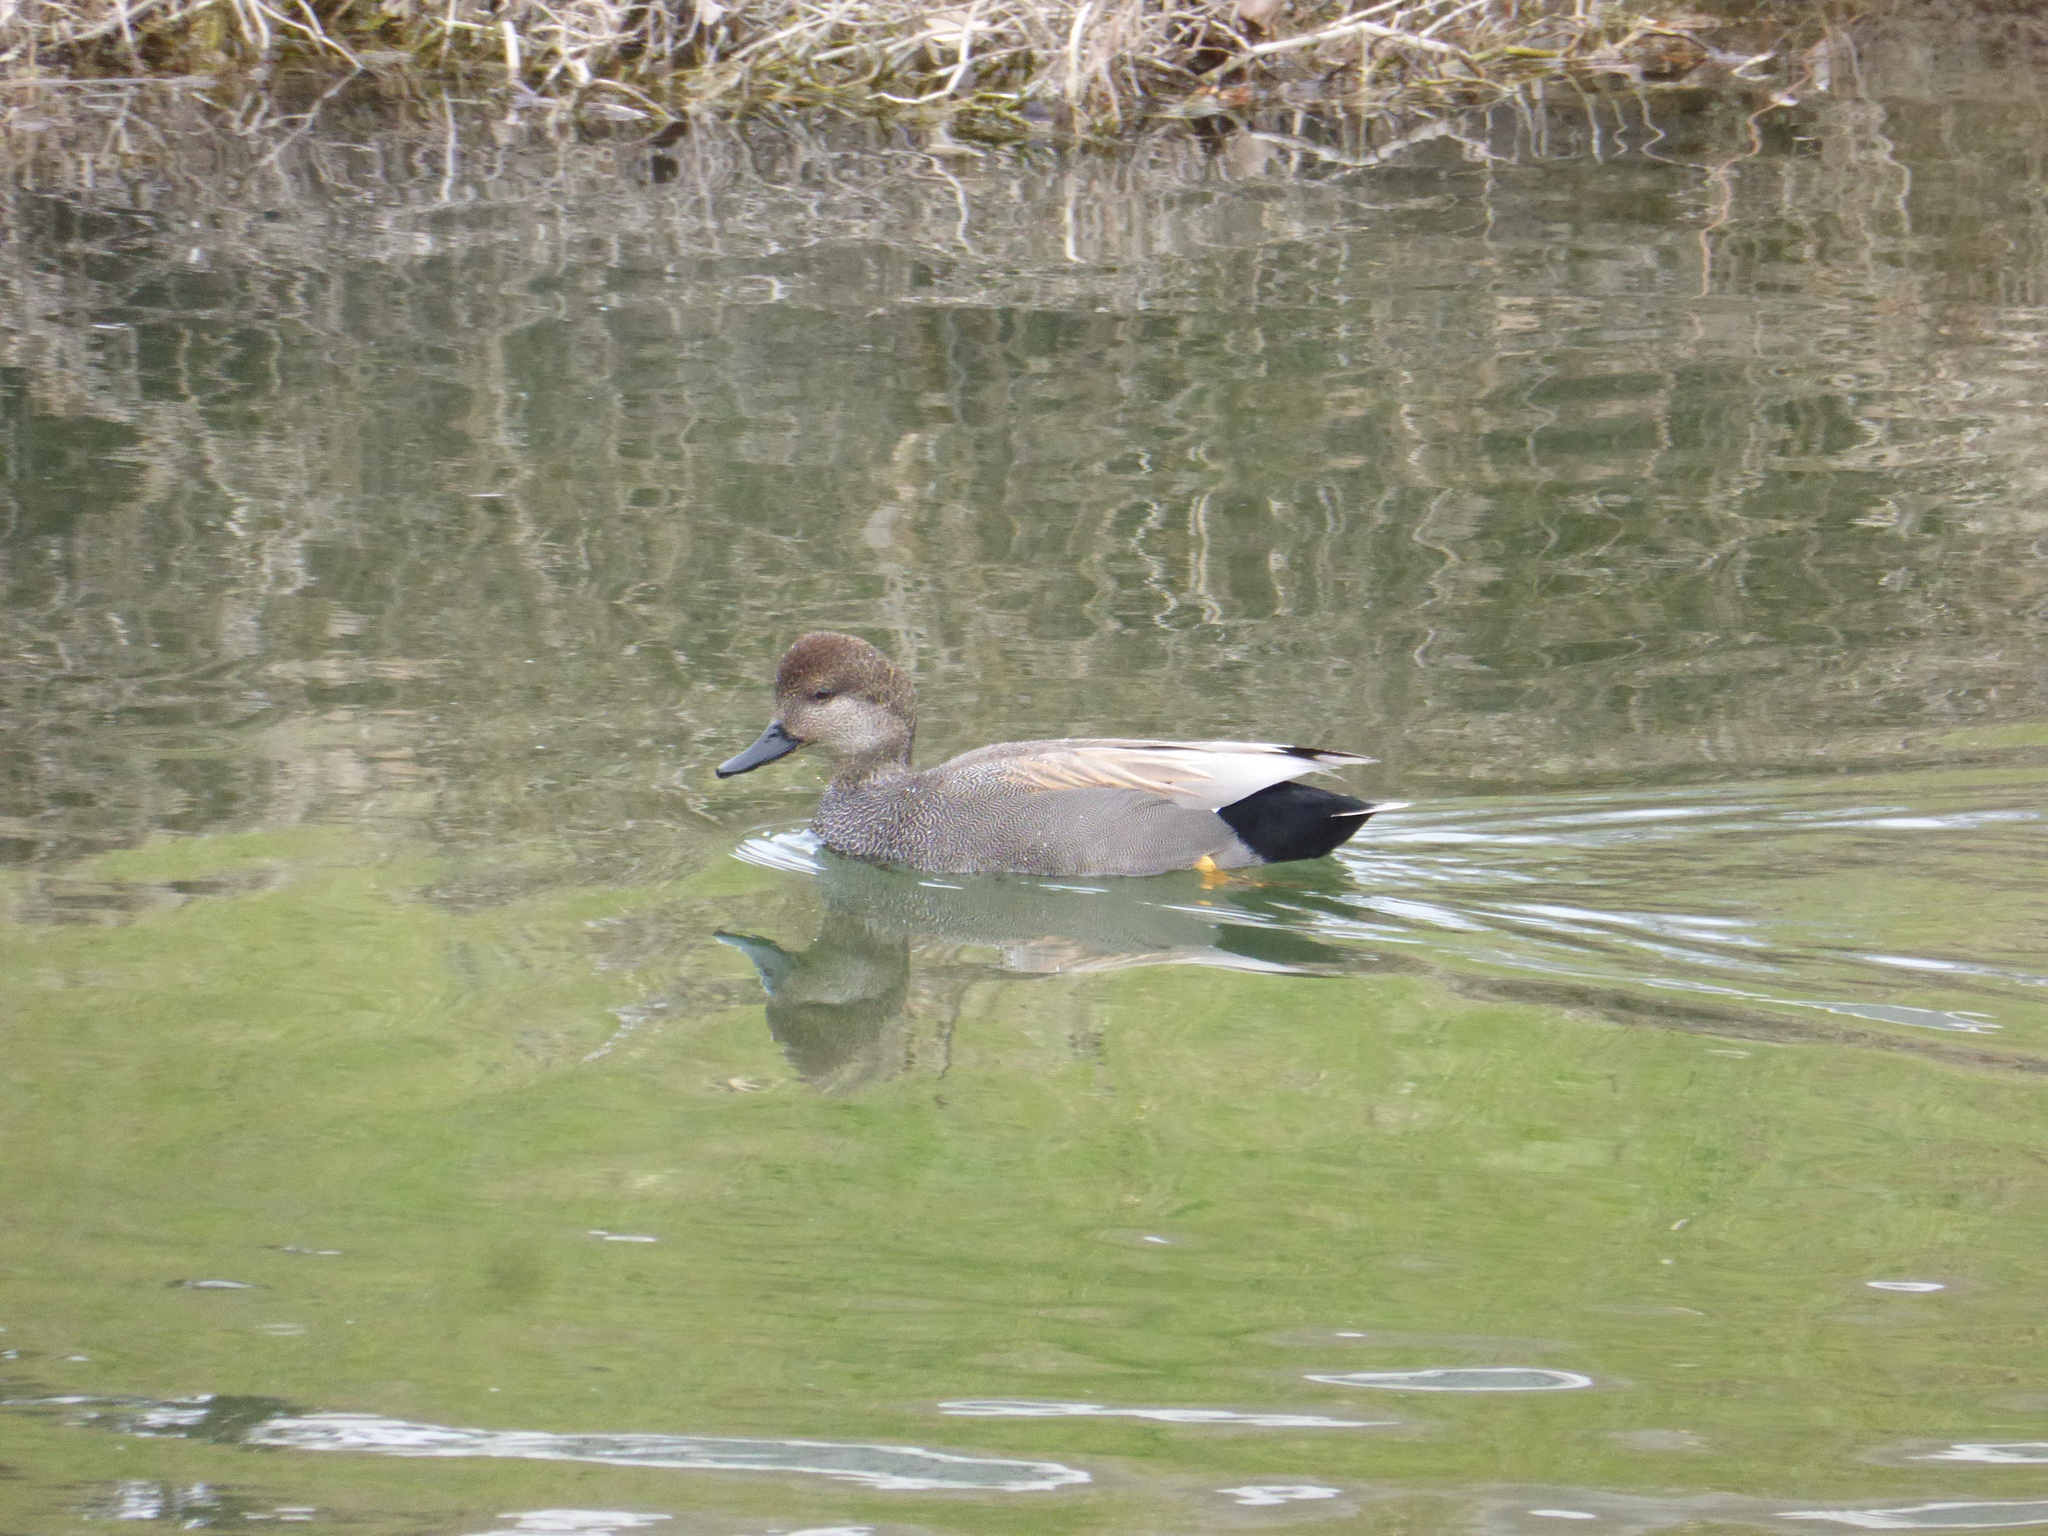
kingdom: Animalia
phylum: Chordata
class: Aves
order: Anseriformes
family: Anatidae
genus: Mareca
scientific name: Mareca strepera
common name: Gadwall
